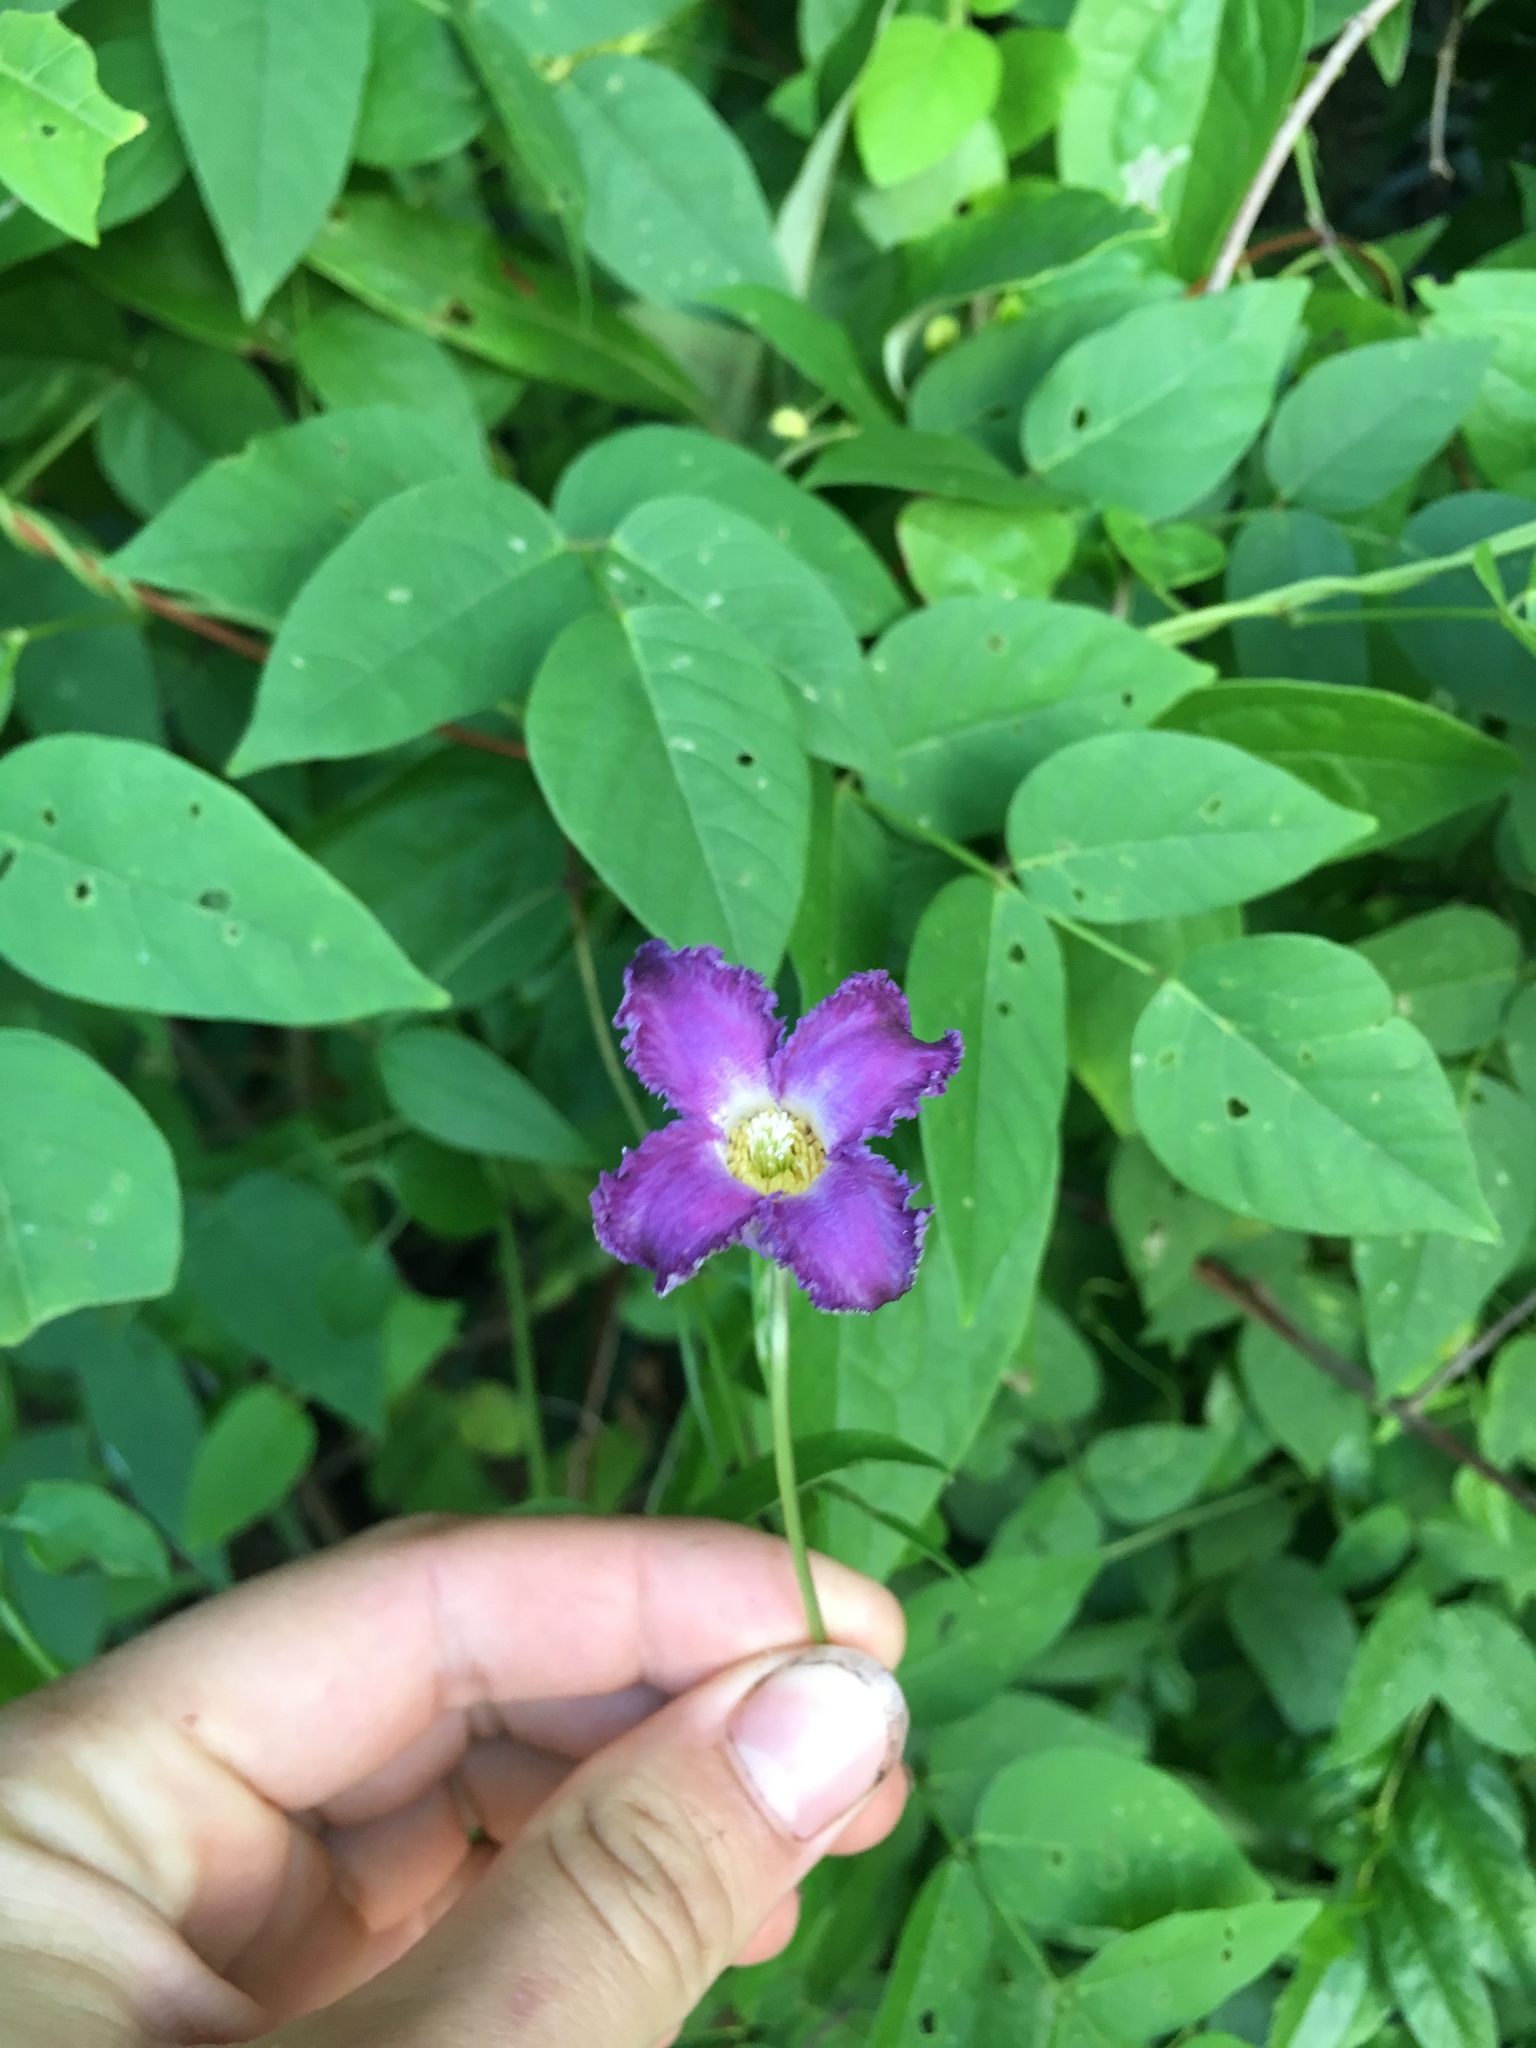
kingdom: Plantae
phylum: Tracheophyta
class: Magnoliopsida
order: Ranunculales
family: Ranunculaceae
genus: Clematis
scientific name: Clematis crispa
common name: Curly clematis
